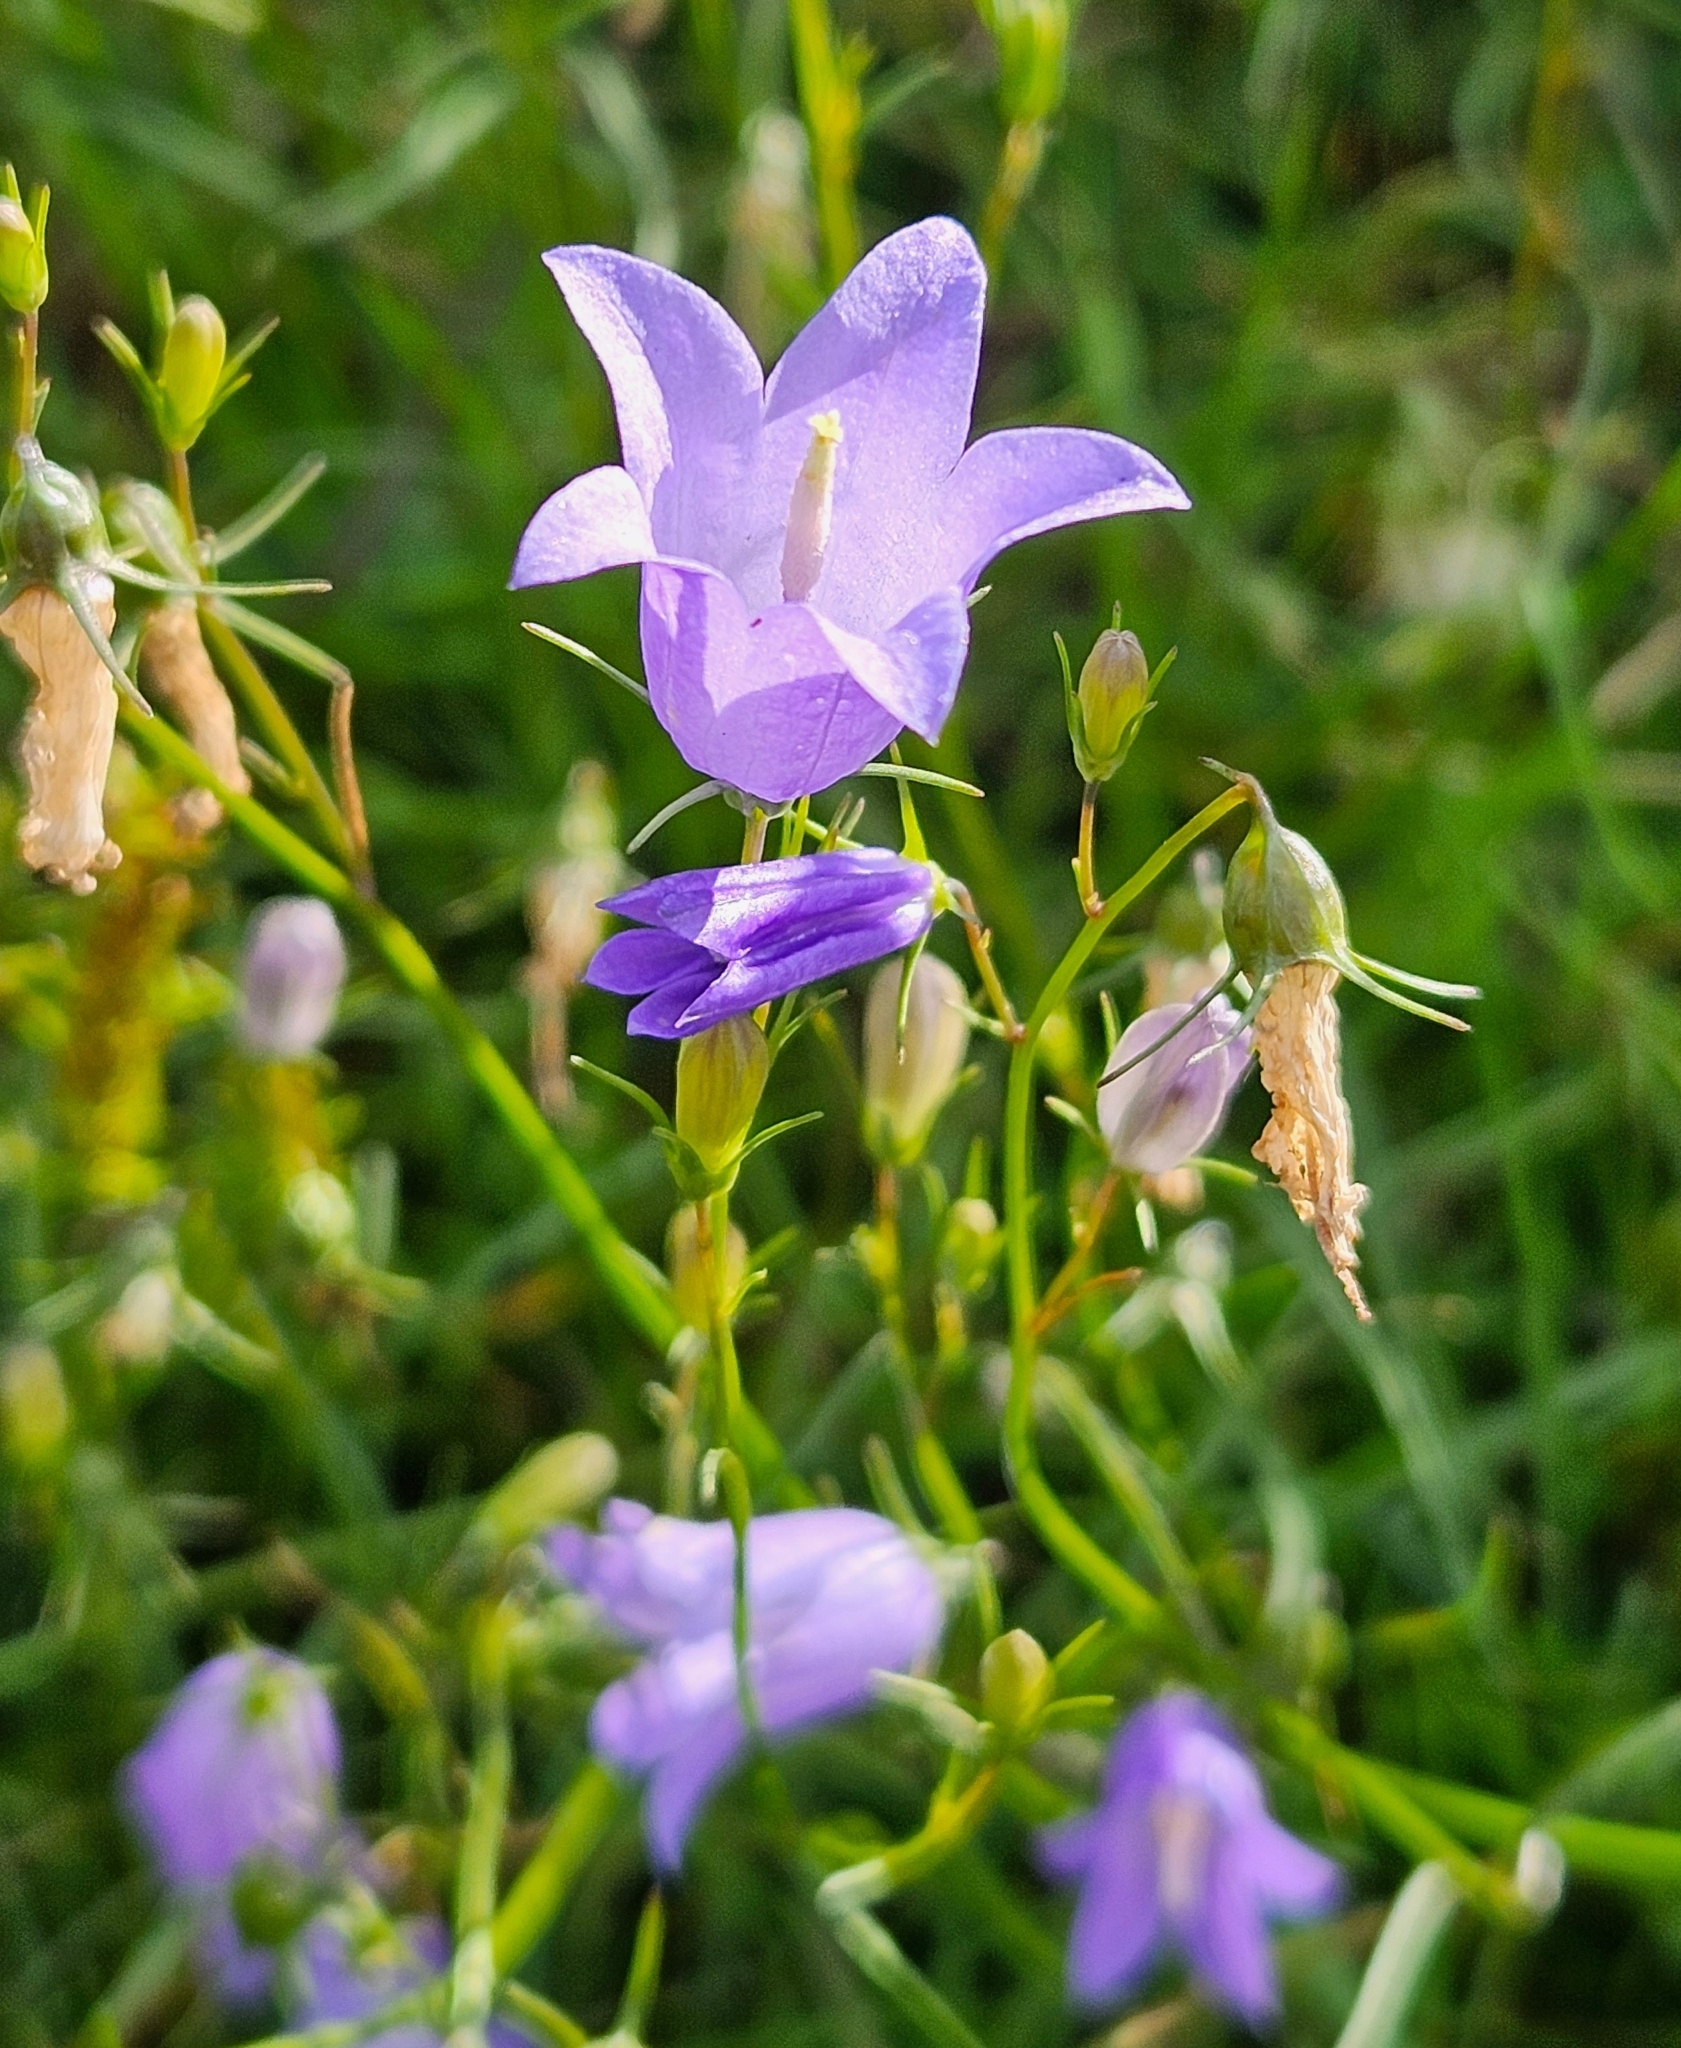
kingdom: Plantae
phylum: Tracheophyta
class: Magnoliopsida
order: Asterales
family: Campanulaceae
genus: Campanula
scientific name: Campanula rotundifolia
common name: Harebell
